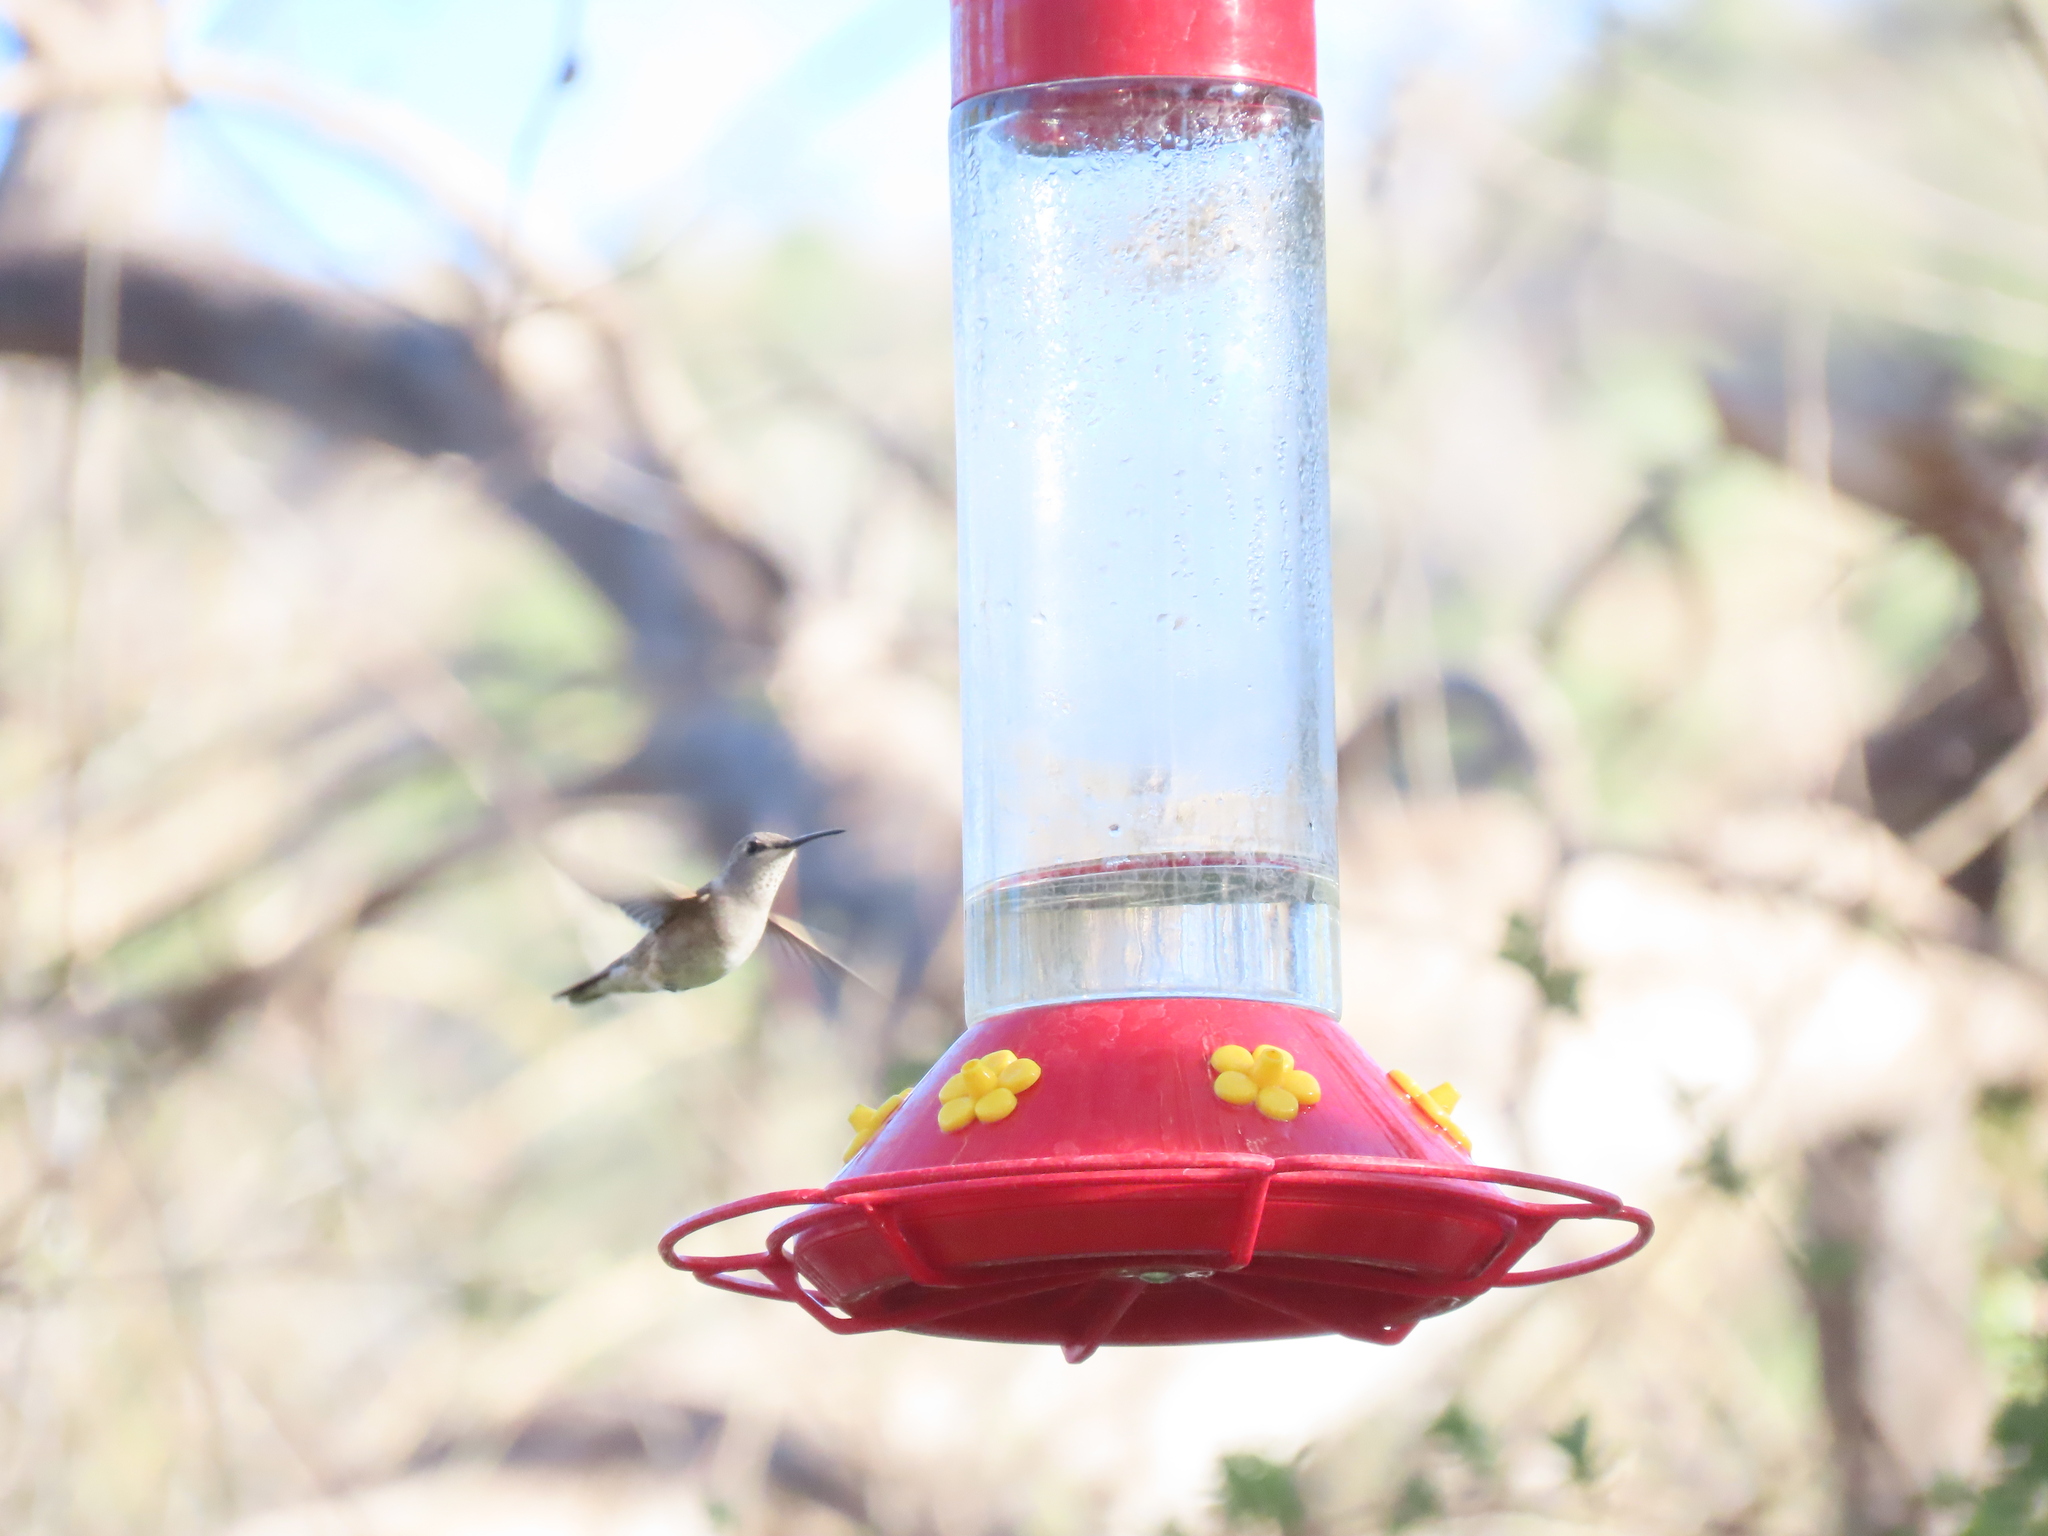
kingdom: Animalia
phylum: Chordata
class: Aves
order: Apodiformes
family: Trochilidae
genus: Archilochus
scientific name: Archilochus alexandri
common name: Black-chinned hummingbird
